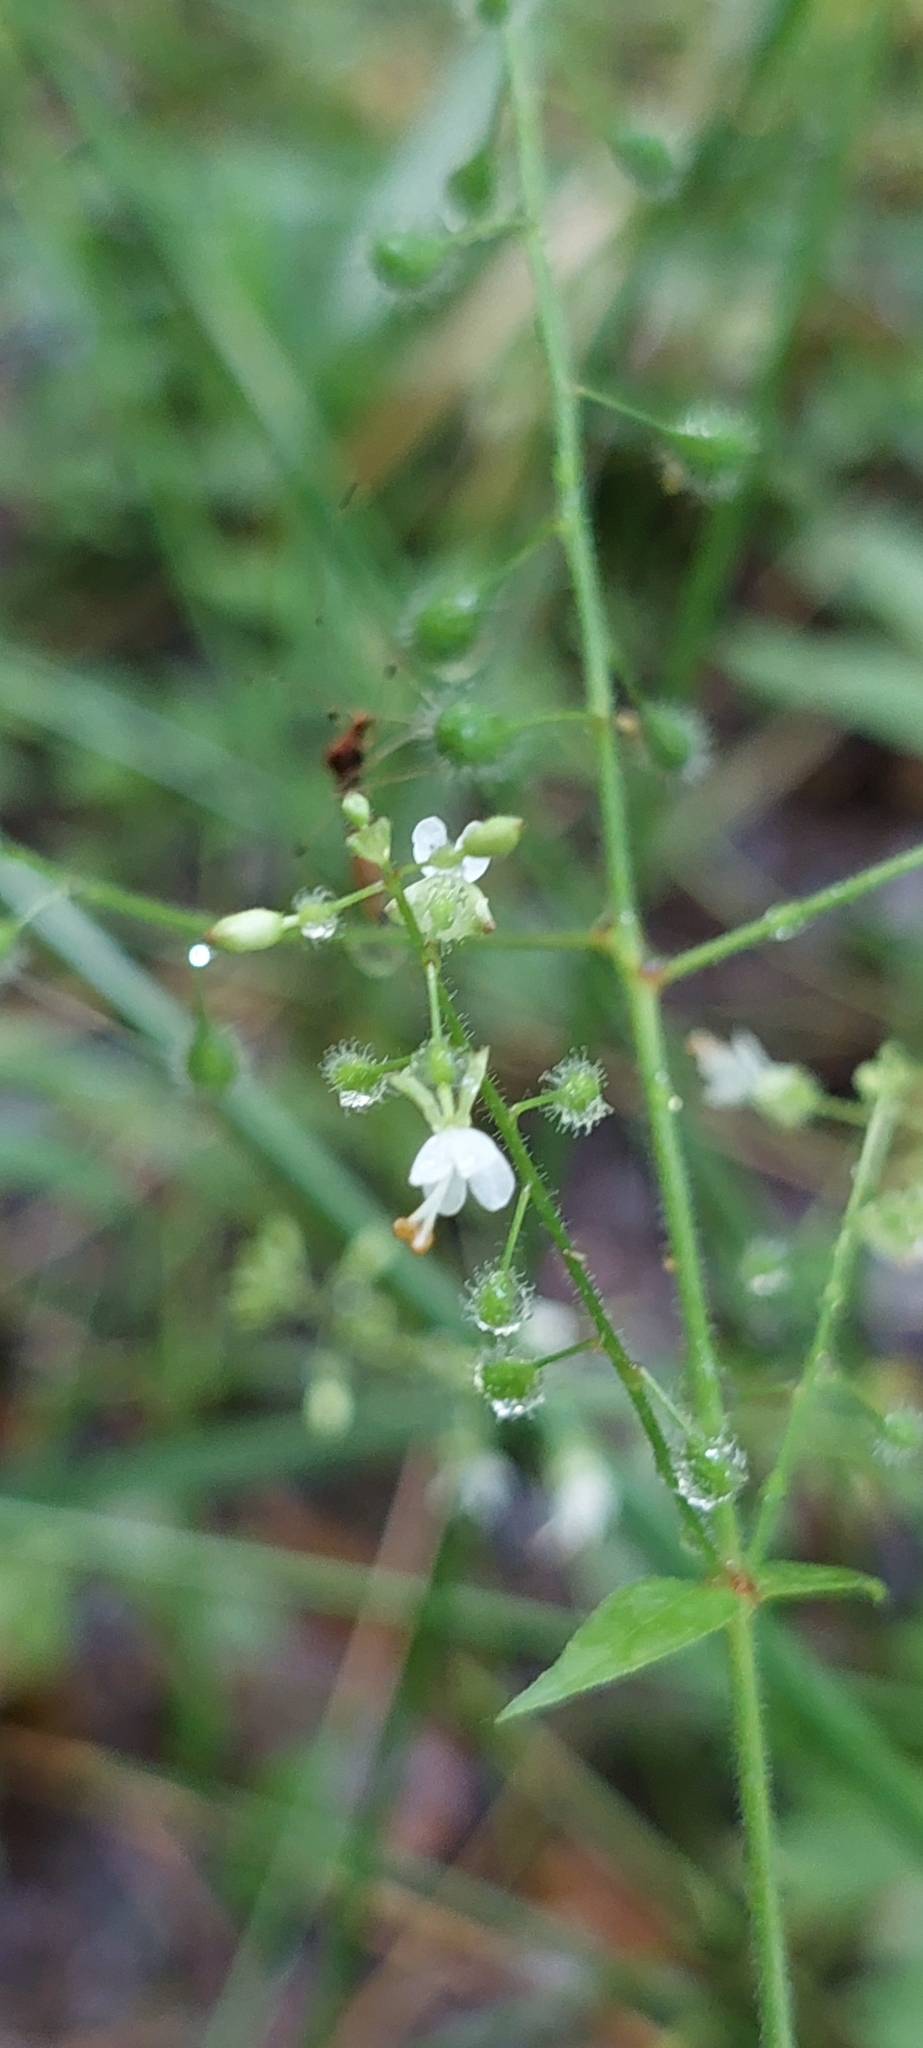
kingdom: Plantae
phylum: Tracheophyta
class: Magnoliopsida
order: Myrtales
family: Onagraceae
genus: Circaea
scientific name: Circaea lutetiana
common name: Enchanter's-nightshade
